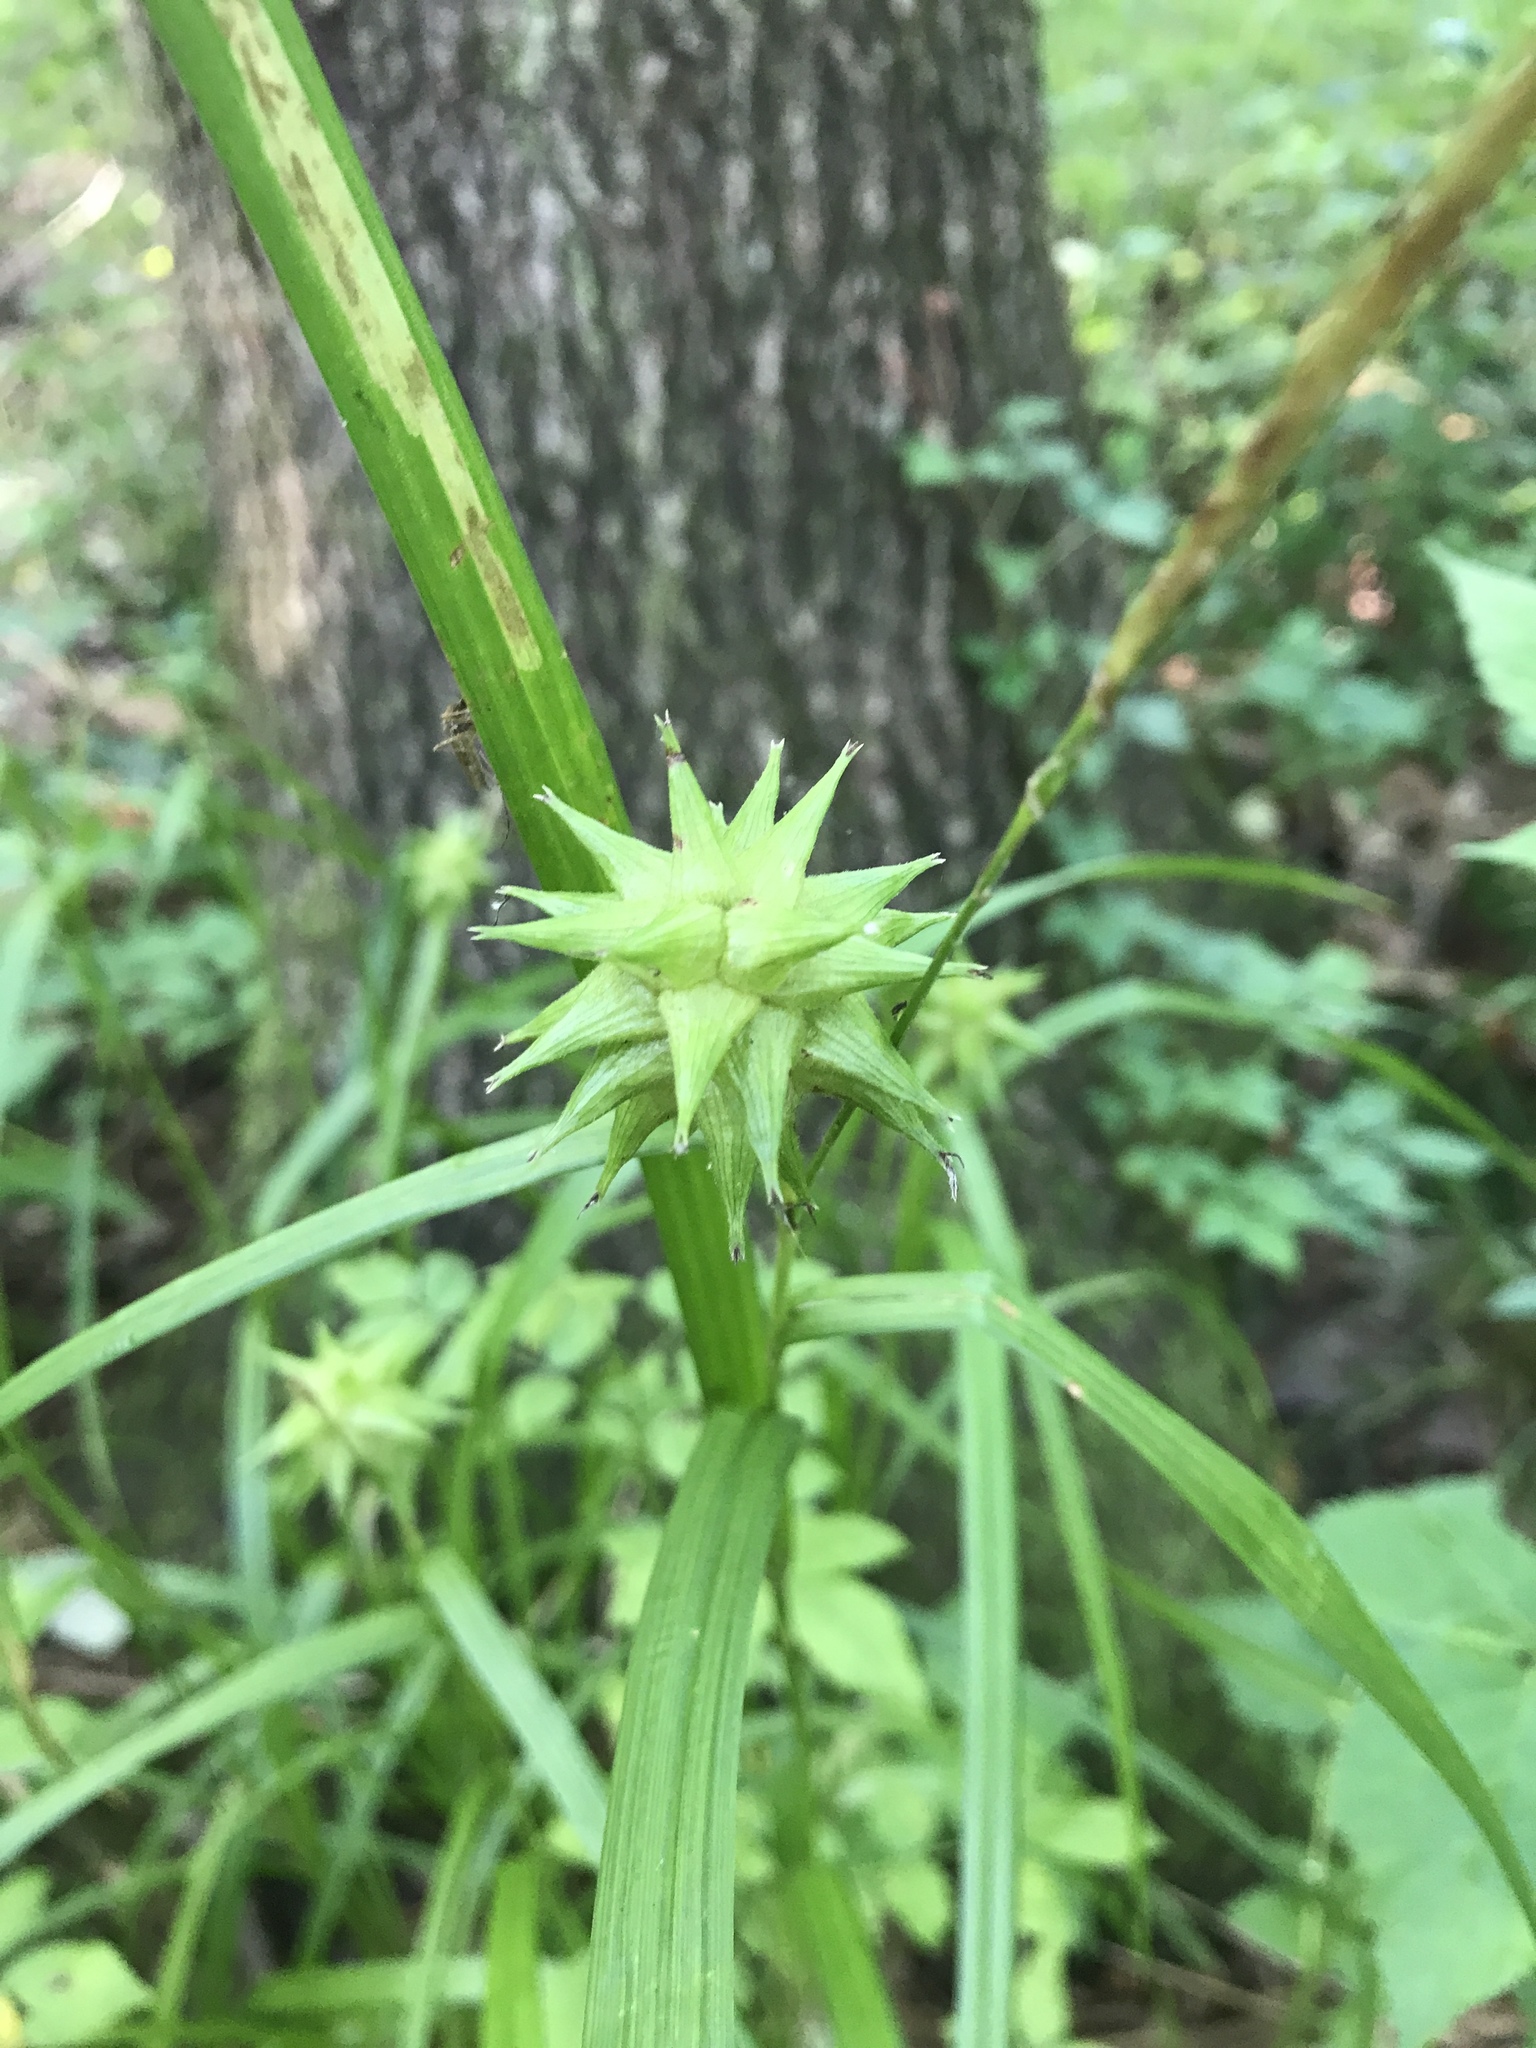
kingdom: Plantae
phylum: Tracheophyta
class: Liliopsida
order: Poales
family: Cyperaceae
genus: Carex
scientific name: Carex grayi
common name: Asa gray's sedge
